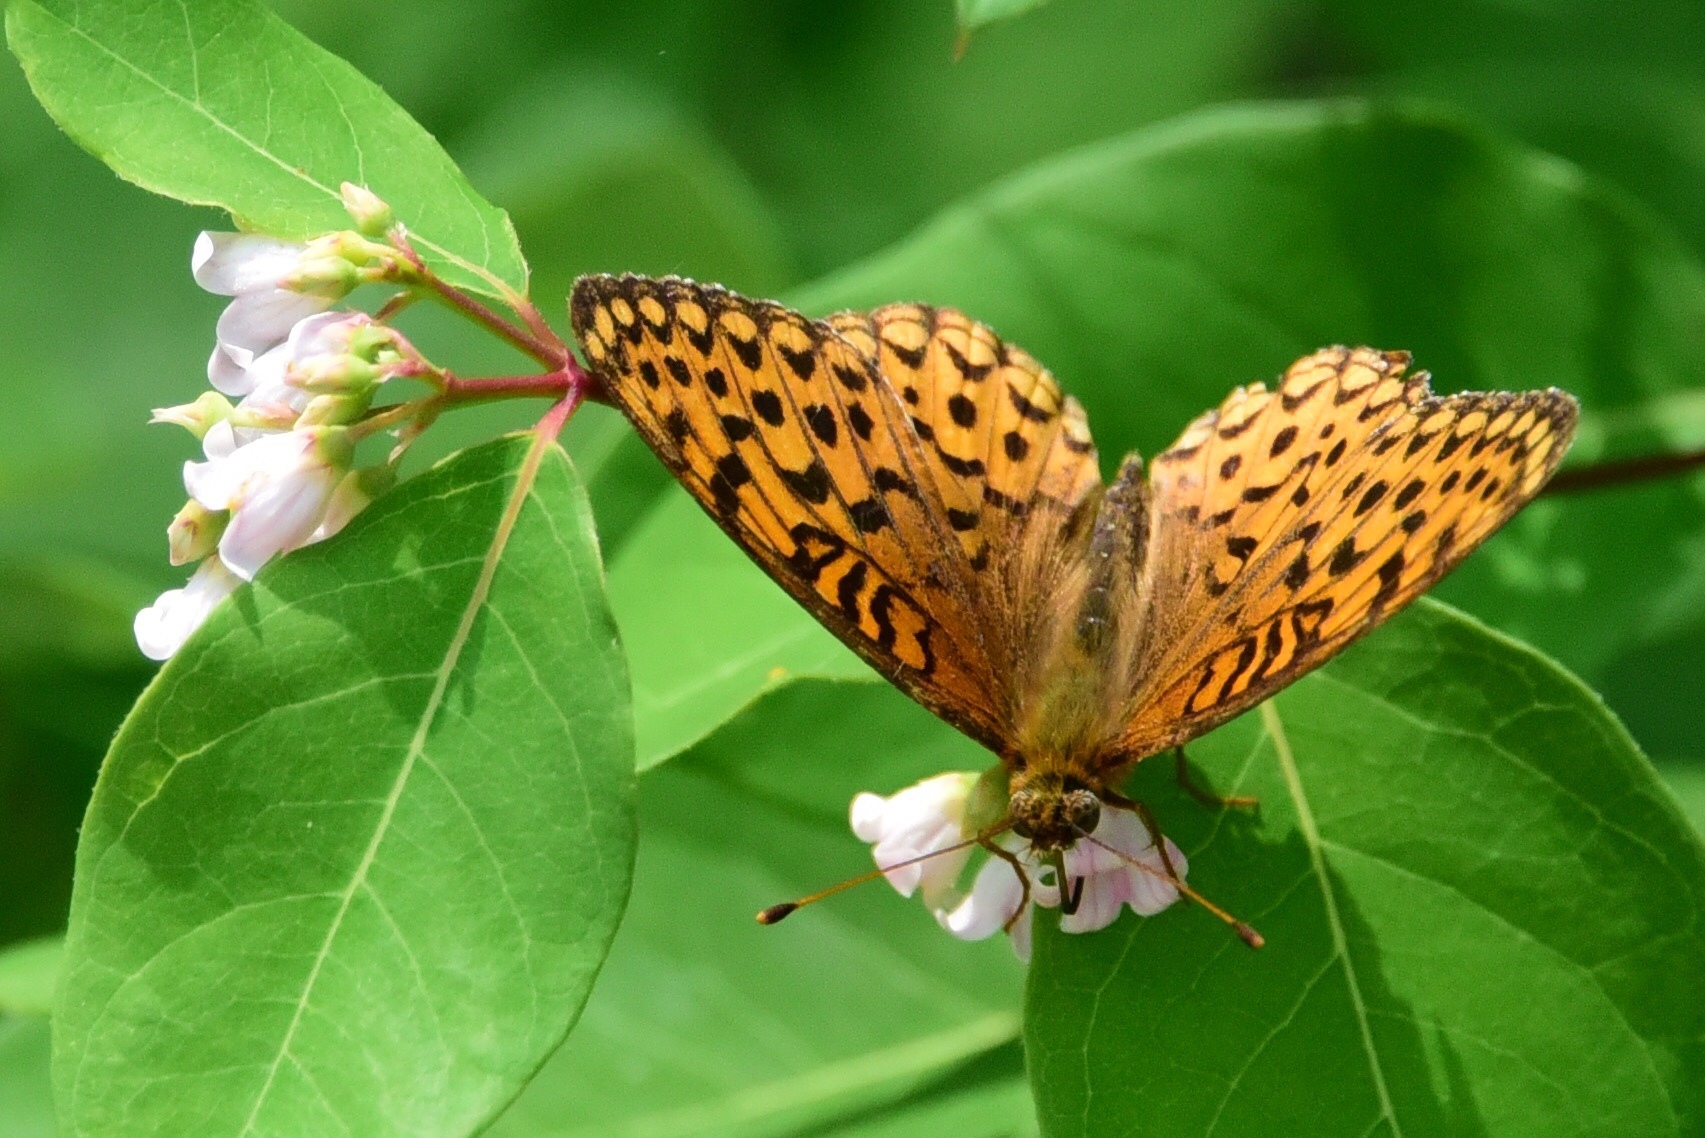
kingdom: Animalia
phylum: Arthropoda
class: Insecta
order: Lepidoptera
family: Nymphalidae
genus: Speyeria
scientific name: Speyeria atlantis
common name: Atlantis fritillary
